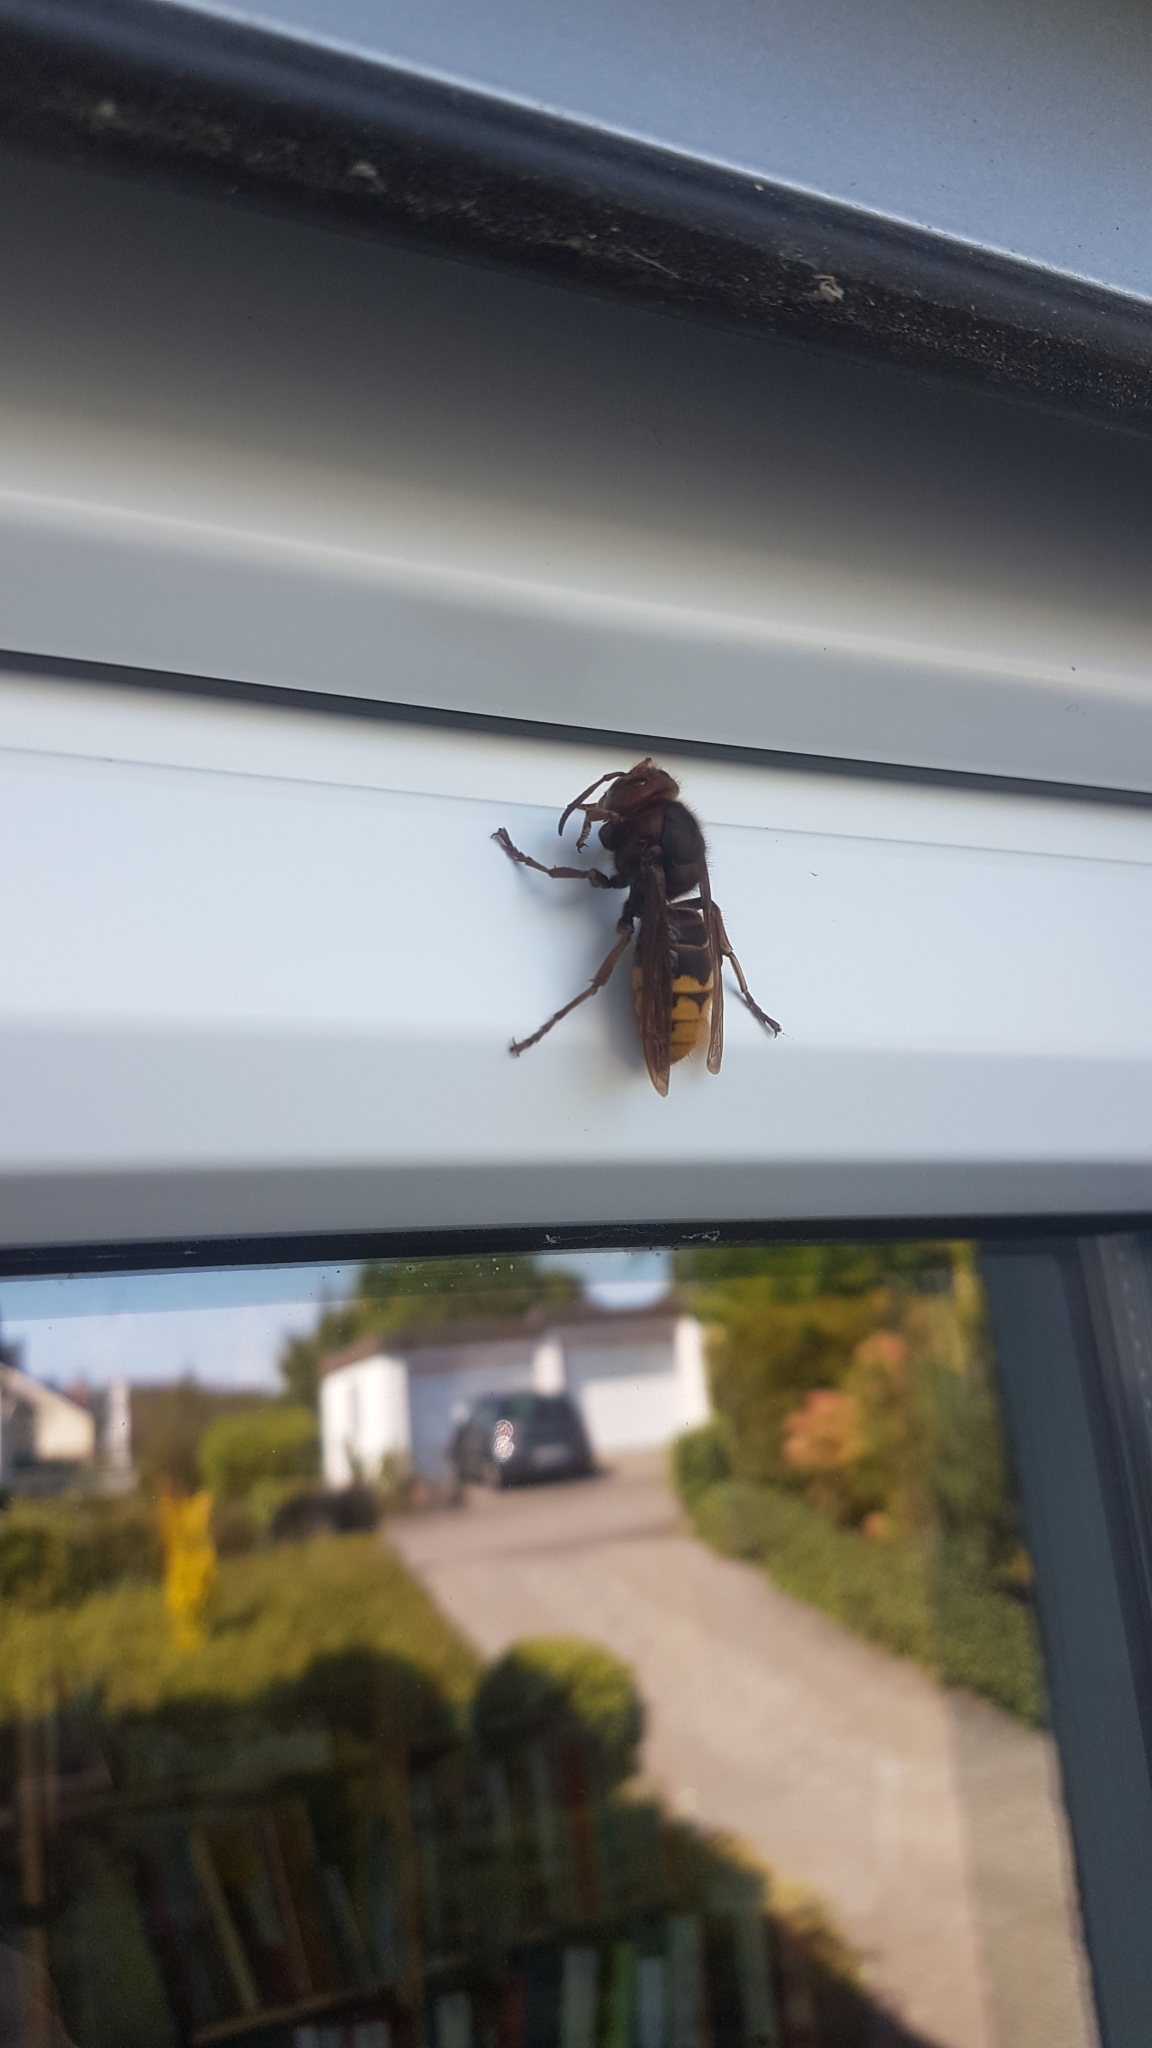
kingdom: Animalia
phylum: Arthropoda
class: Insecta
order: Hymenoptera
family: Vespidae
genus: Vespa
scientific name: Vespa crabro
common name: Hornet
